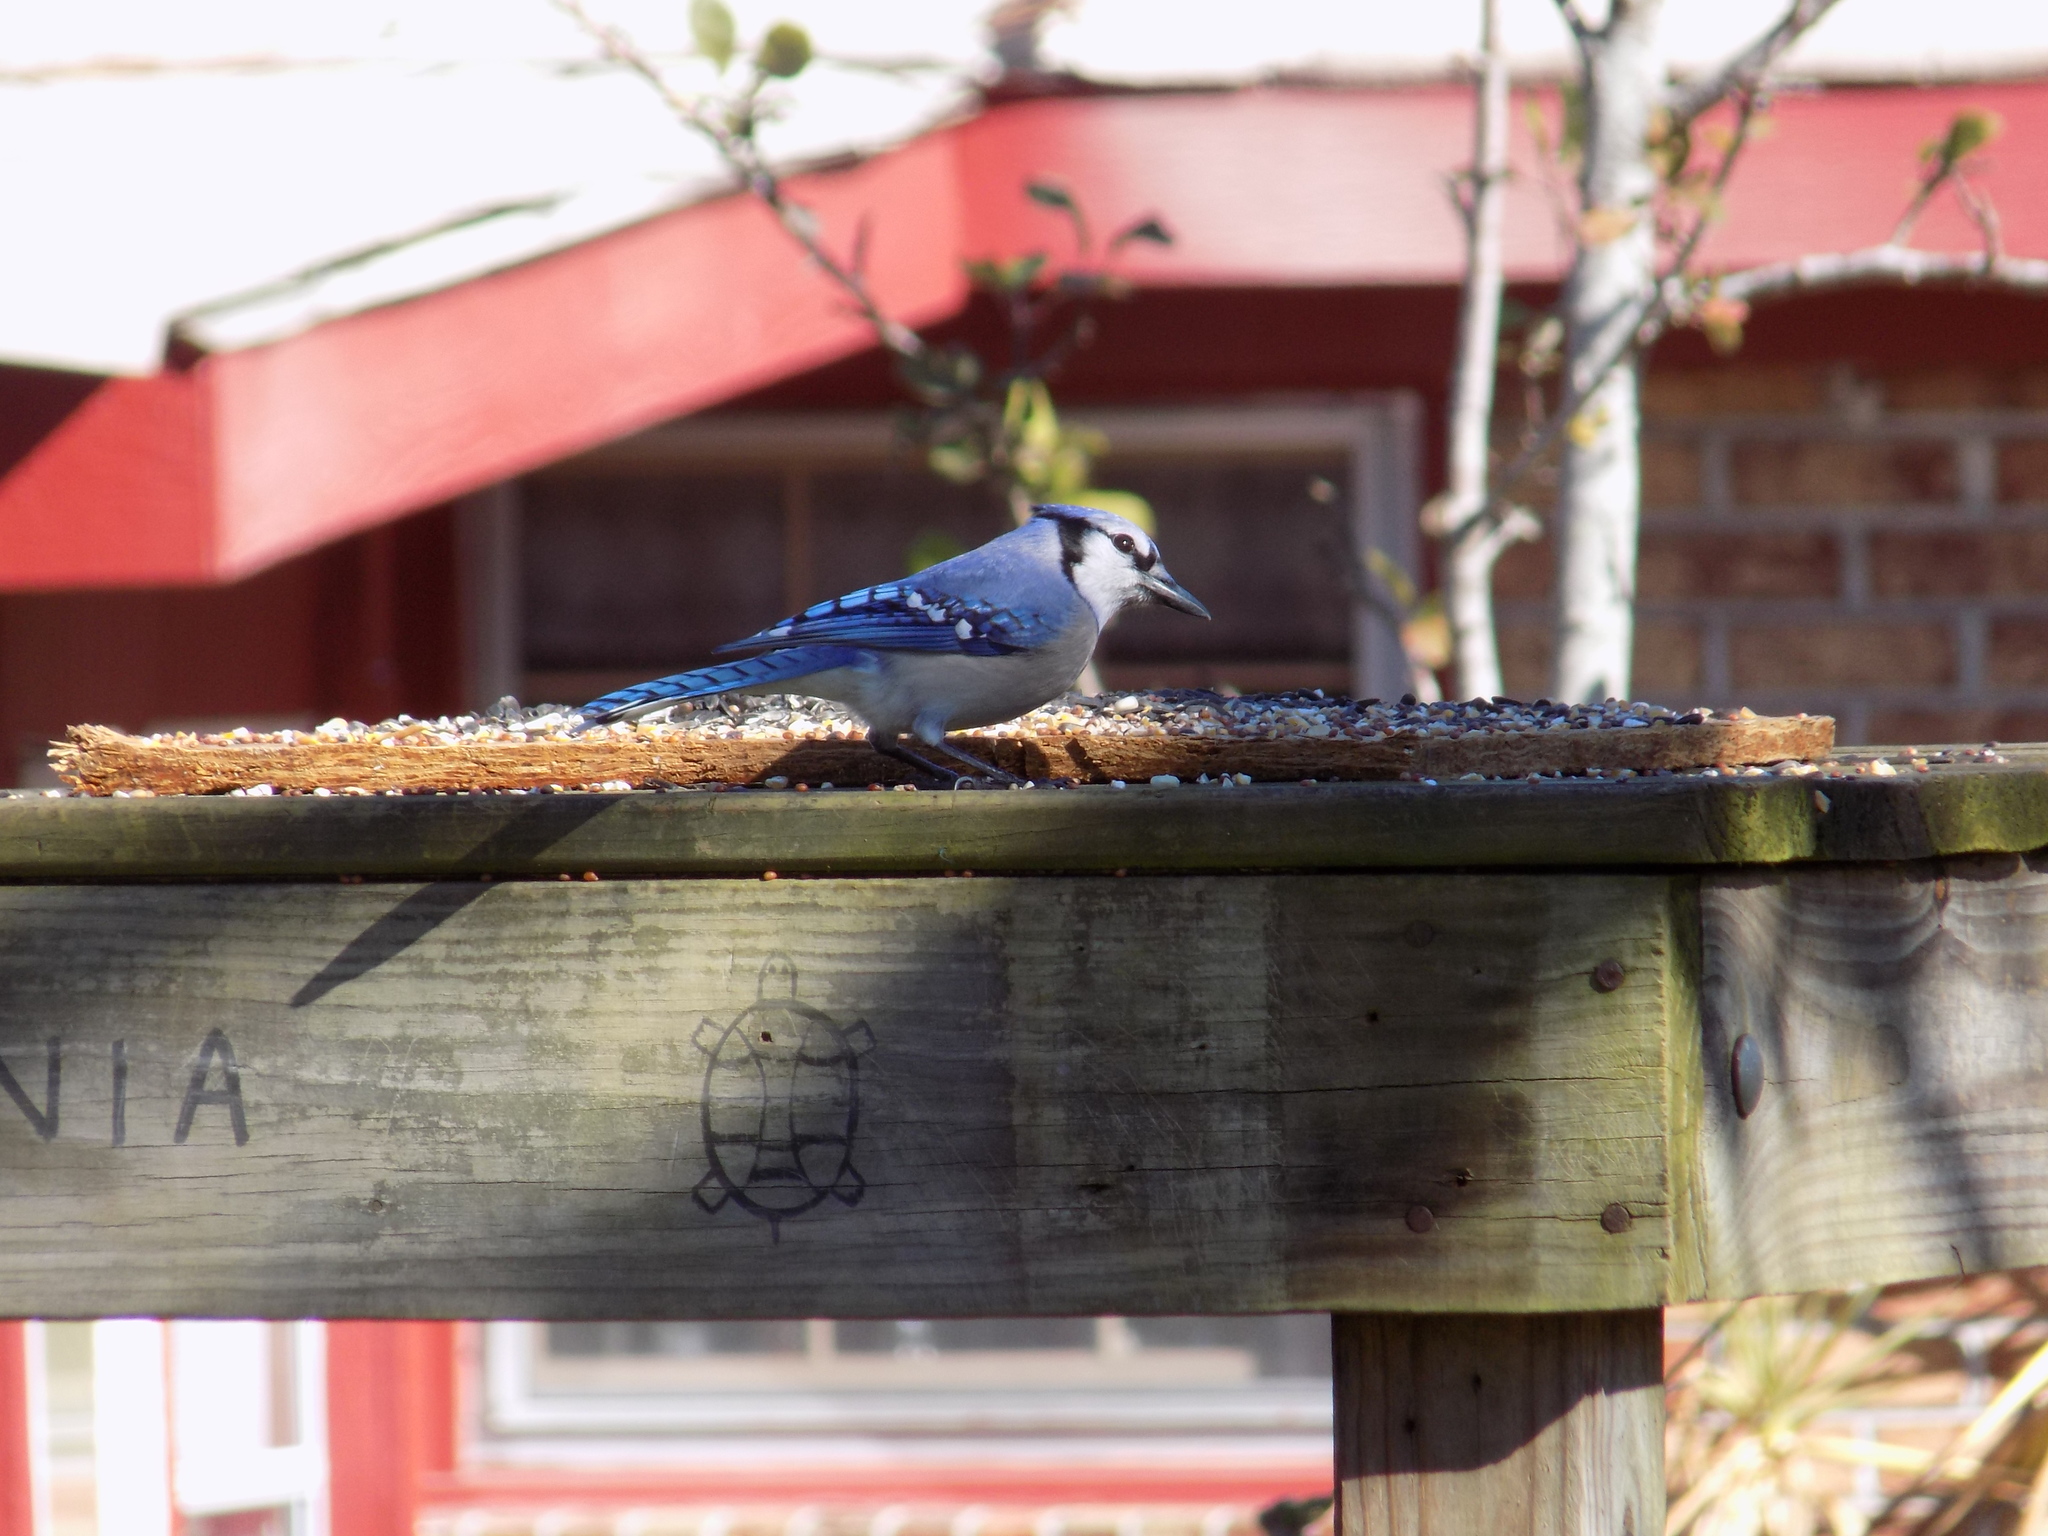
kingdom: Animalia
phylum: Chordata
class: Aves
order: Passeriformes
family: Corvidae
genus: Cyanocitta
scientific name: Cyanocitta cristata
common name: Blue jay
